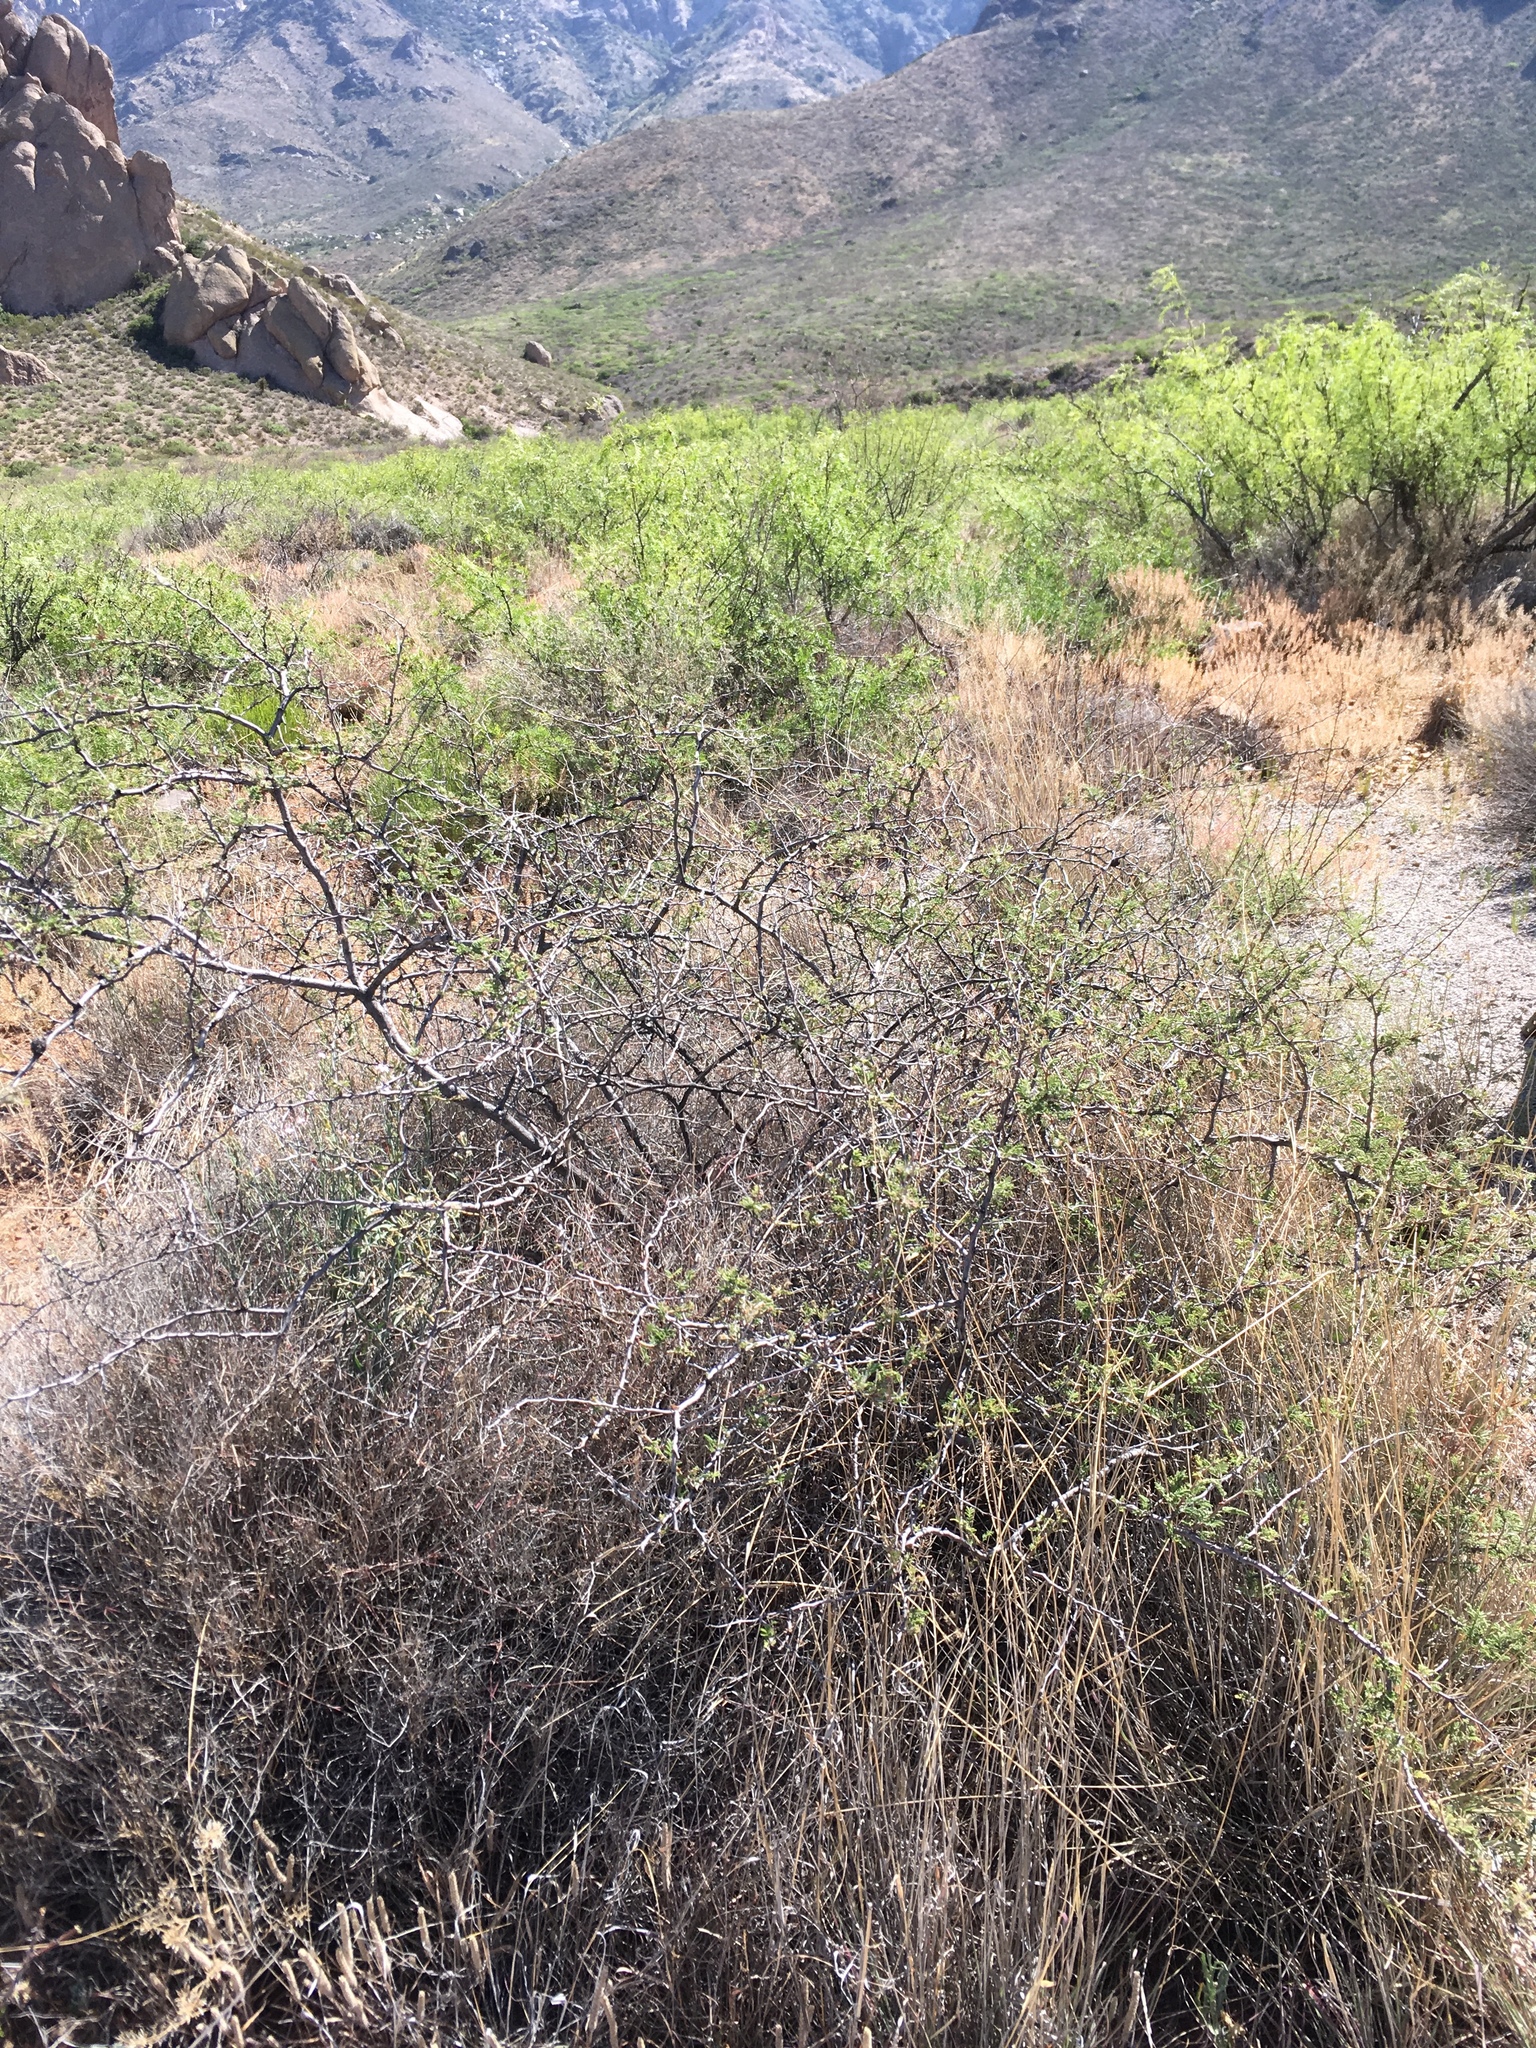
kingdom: Plantae
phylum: Tracheophyta
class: Magnoliopsida
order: Fabales
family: Fabaceae
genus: Mimosa
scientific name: Mimosa aculeaticarpa
